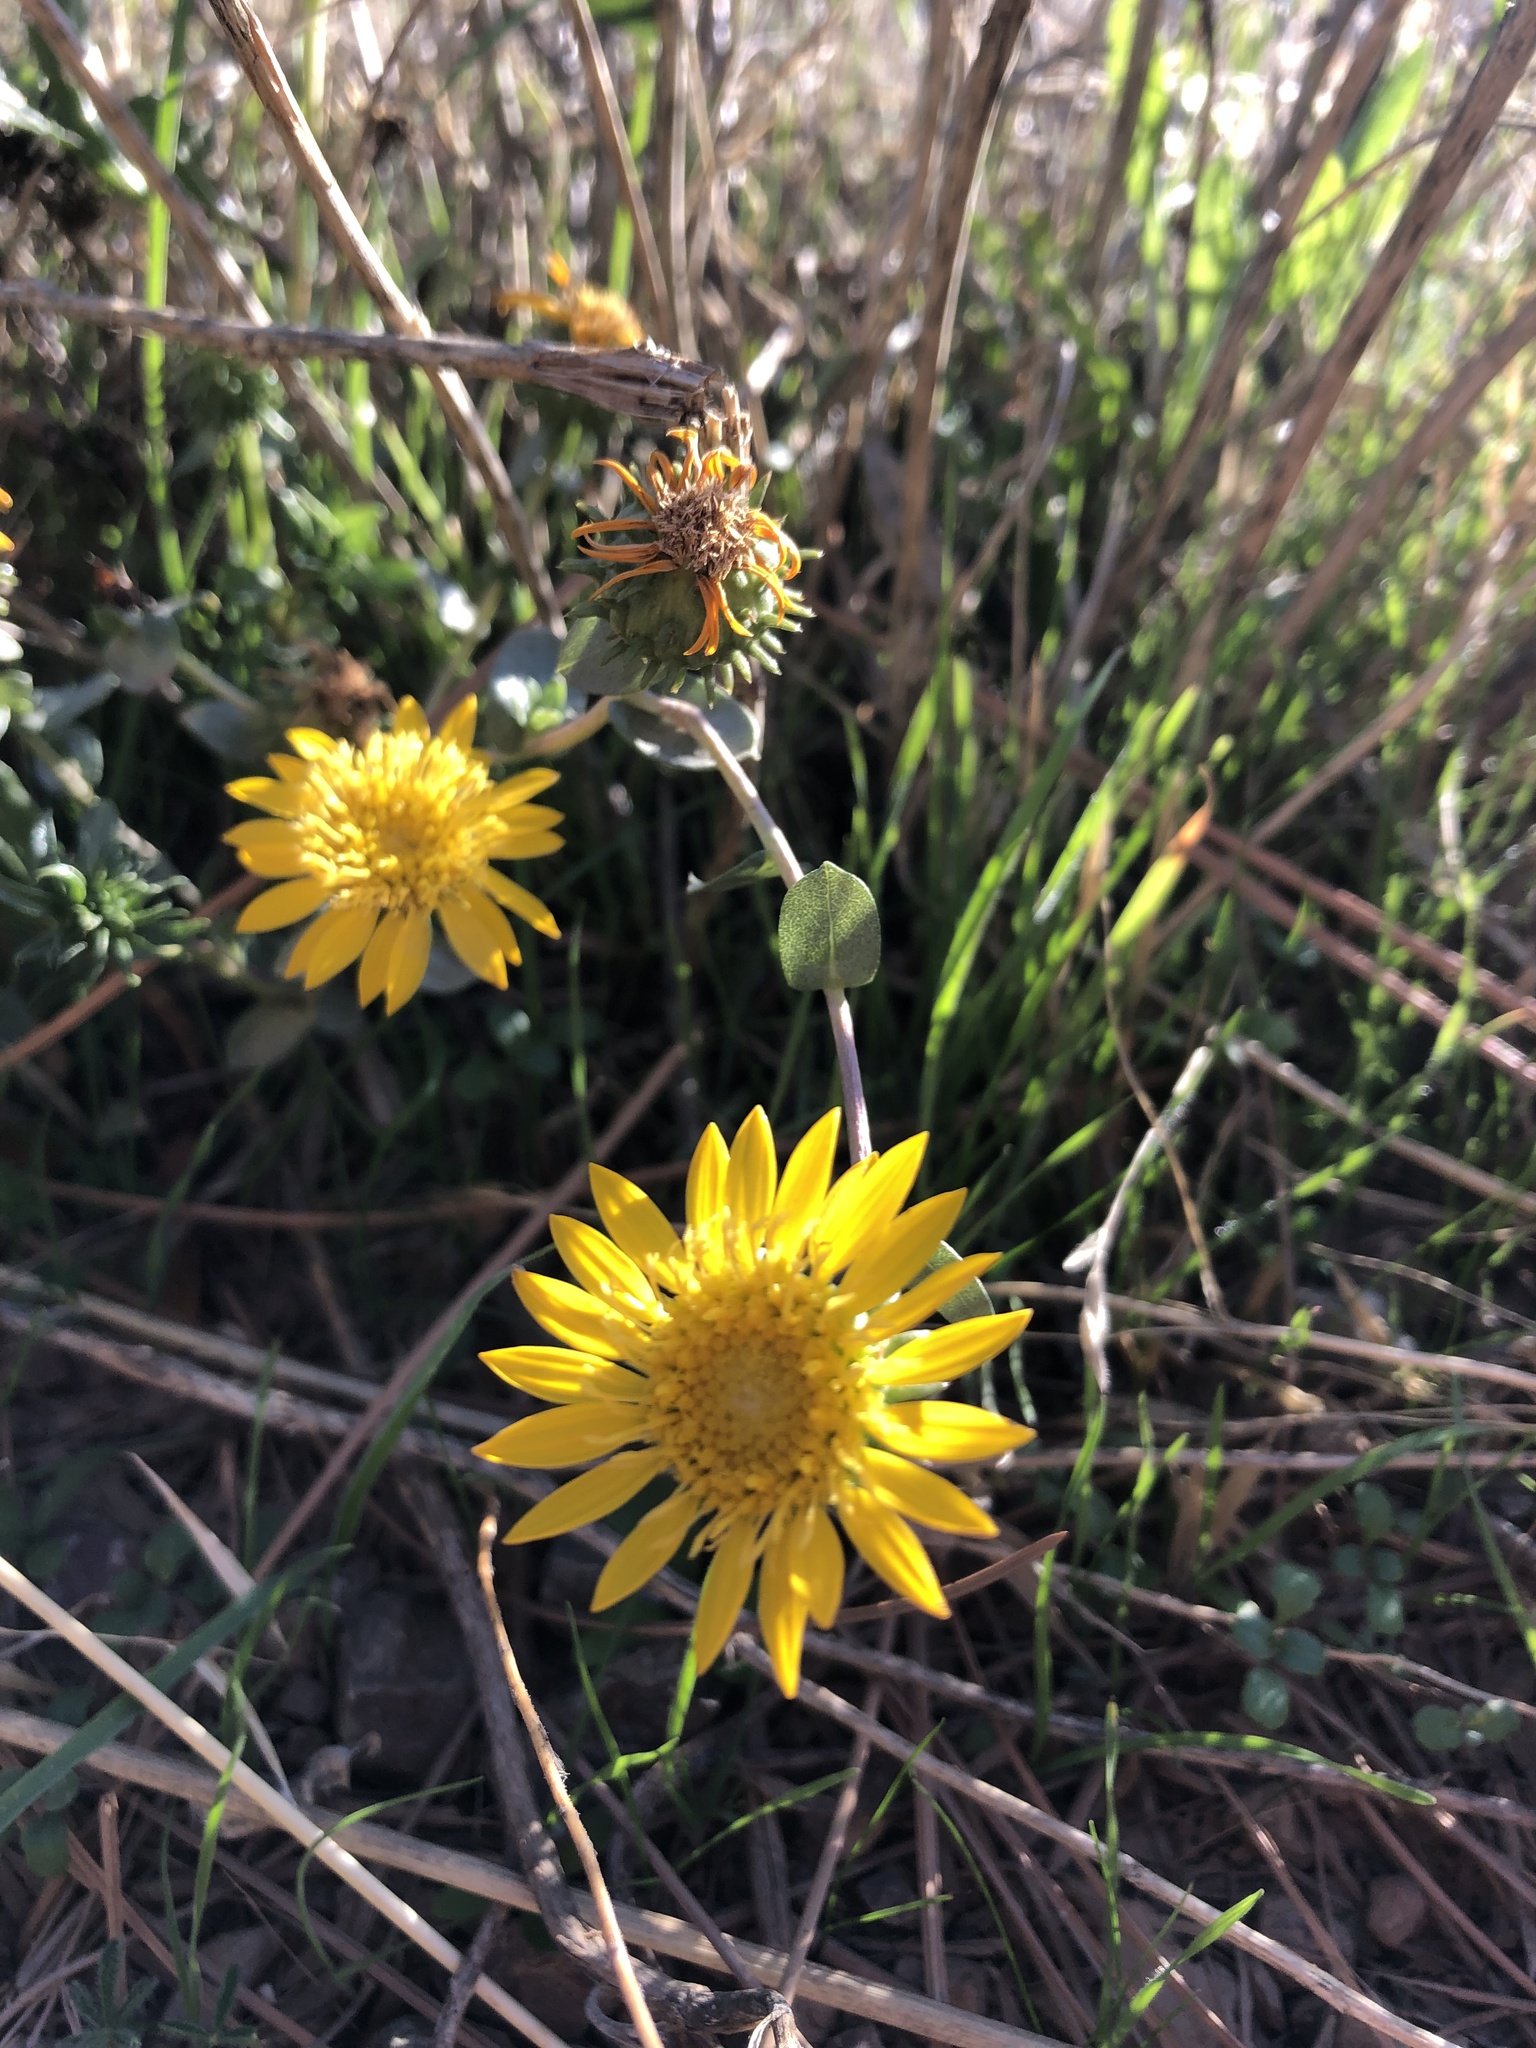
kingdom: Plantae
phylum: Tracheophyta
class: Magnoliopsida
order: Asterales
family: Asteraceae
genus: Grindelia
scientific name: Grindelia hirsutula
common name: Hairy gumweed
